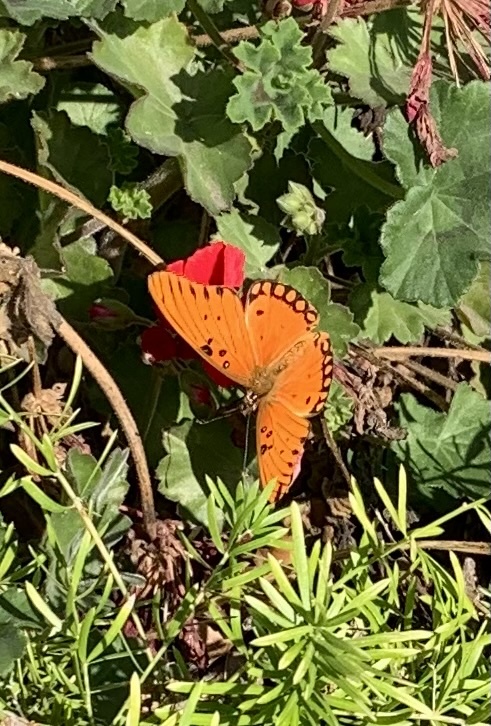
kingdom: Animalia
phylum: Arthropoda
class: Insecta
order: Lepidoptera
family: Nymphalidae
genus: Dione
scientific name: Dione vanillae
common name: Gulf fritillary
